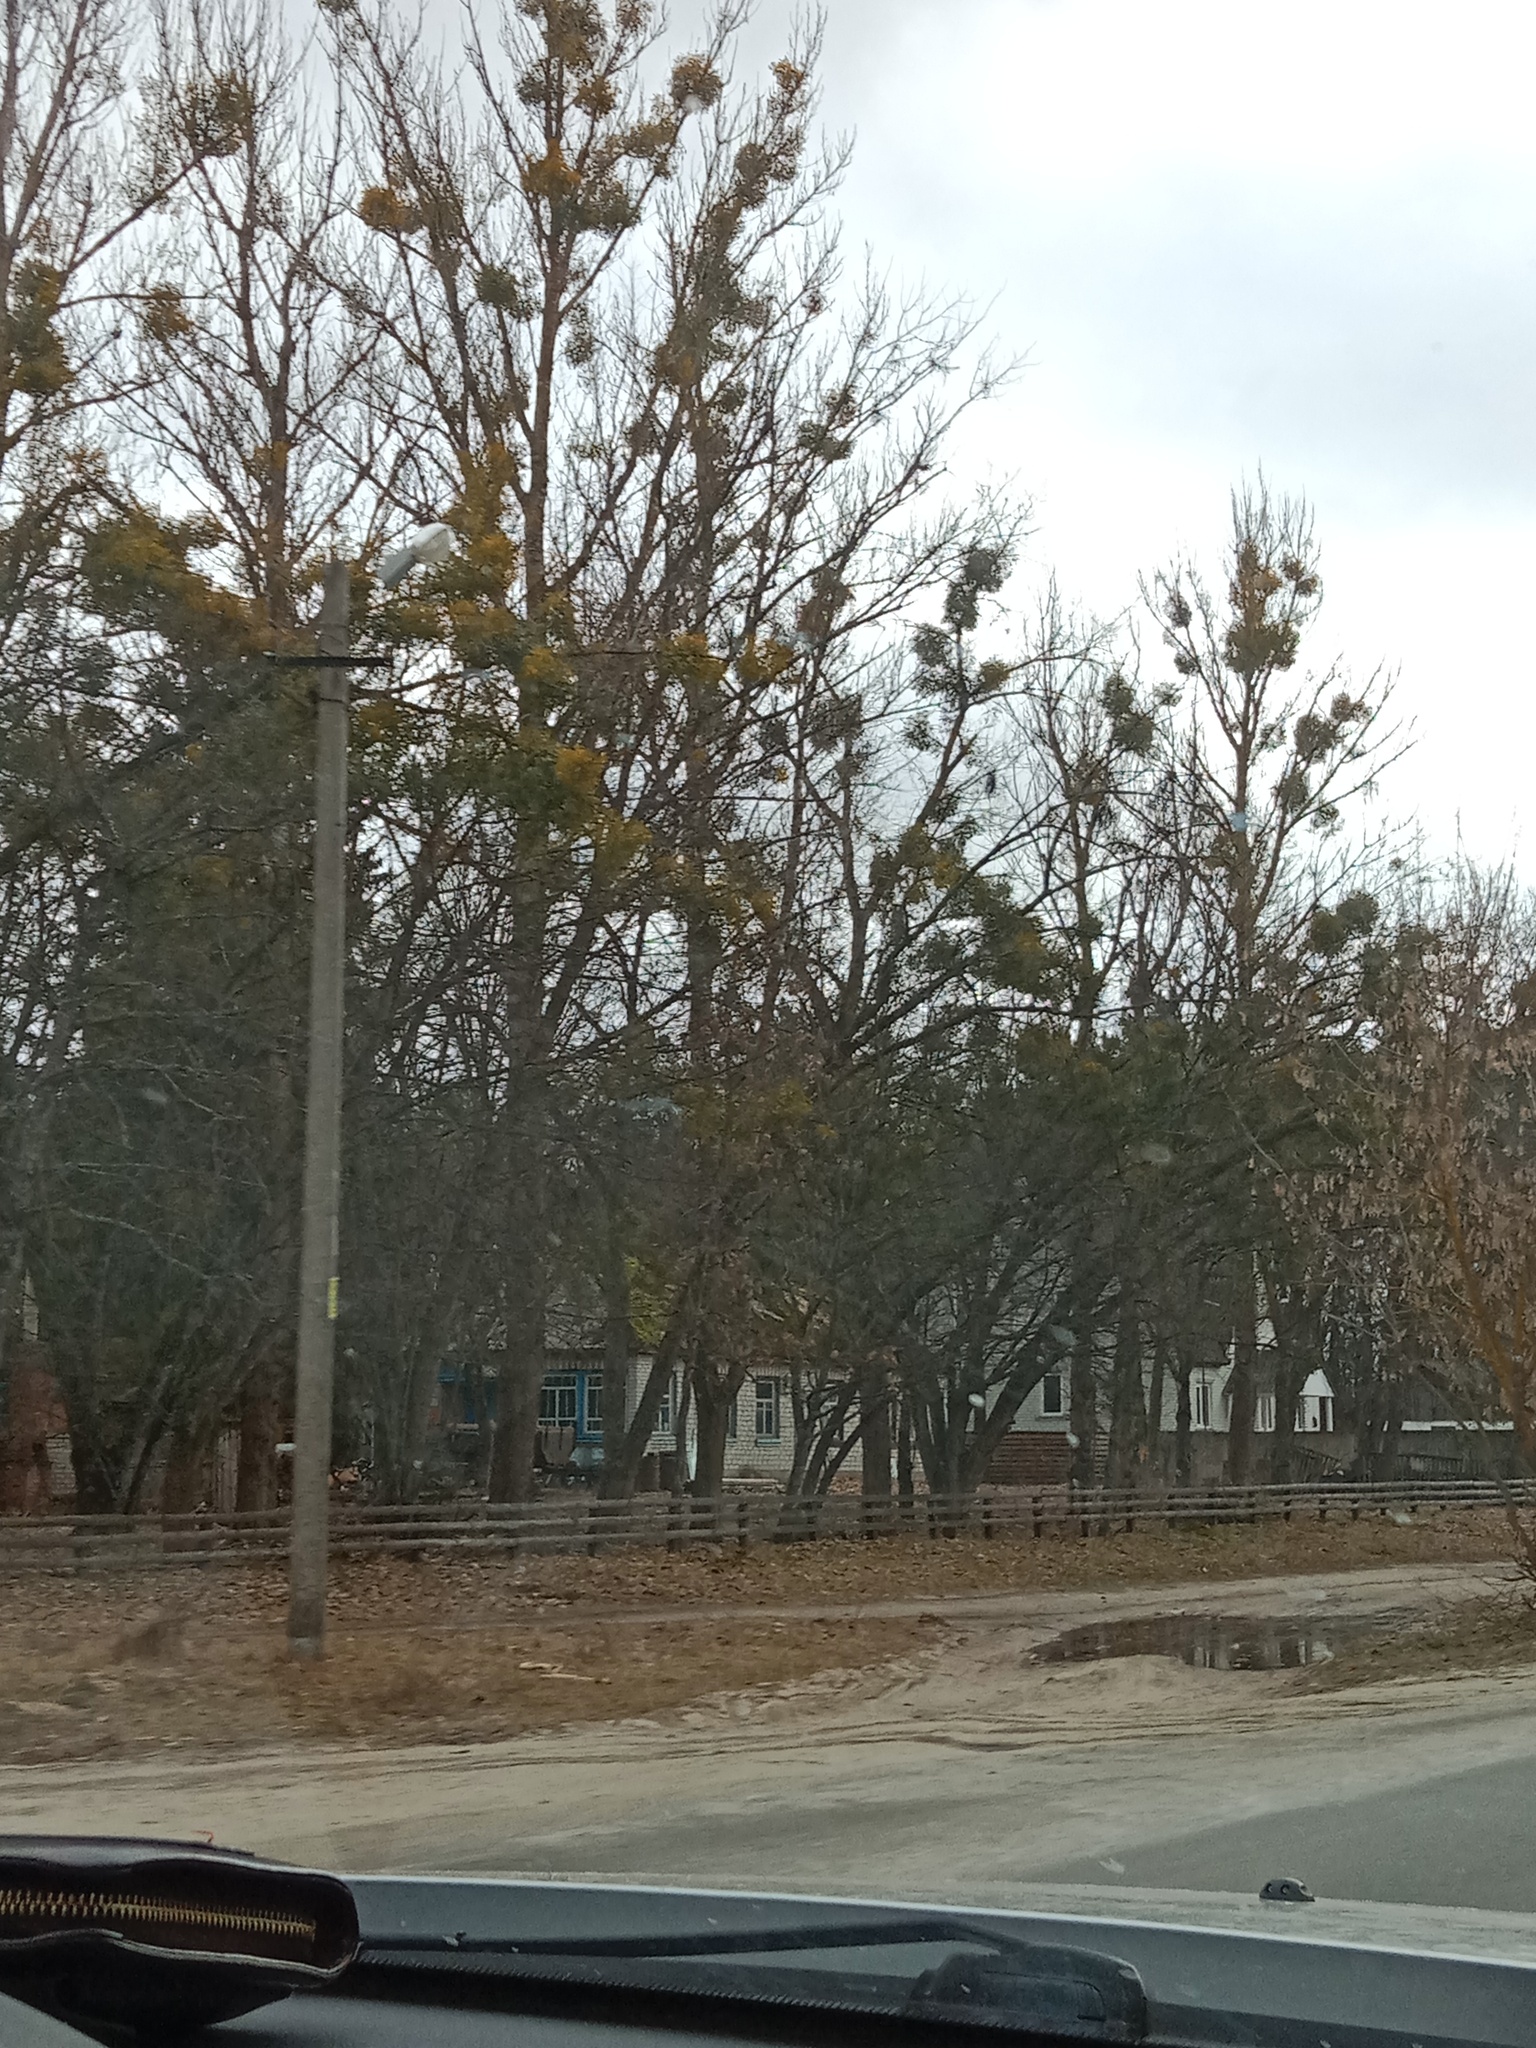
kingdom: Plantae
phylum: Tracheophyta
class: Magnoliopsida
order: Santalales
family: Viscaceae
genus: Viscum
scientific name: Viscum album
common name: Mistletoe
